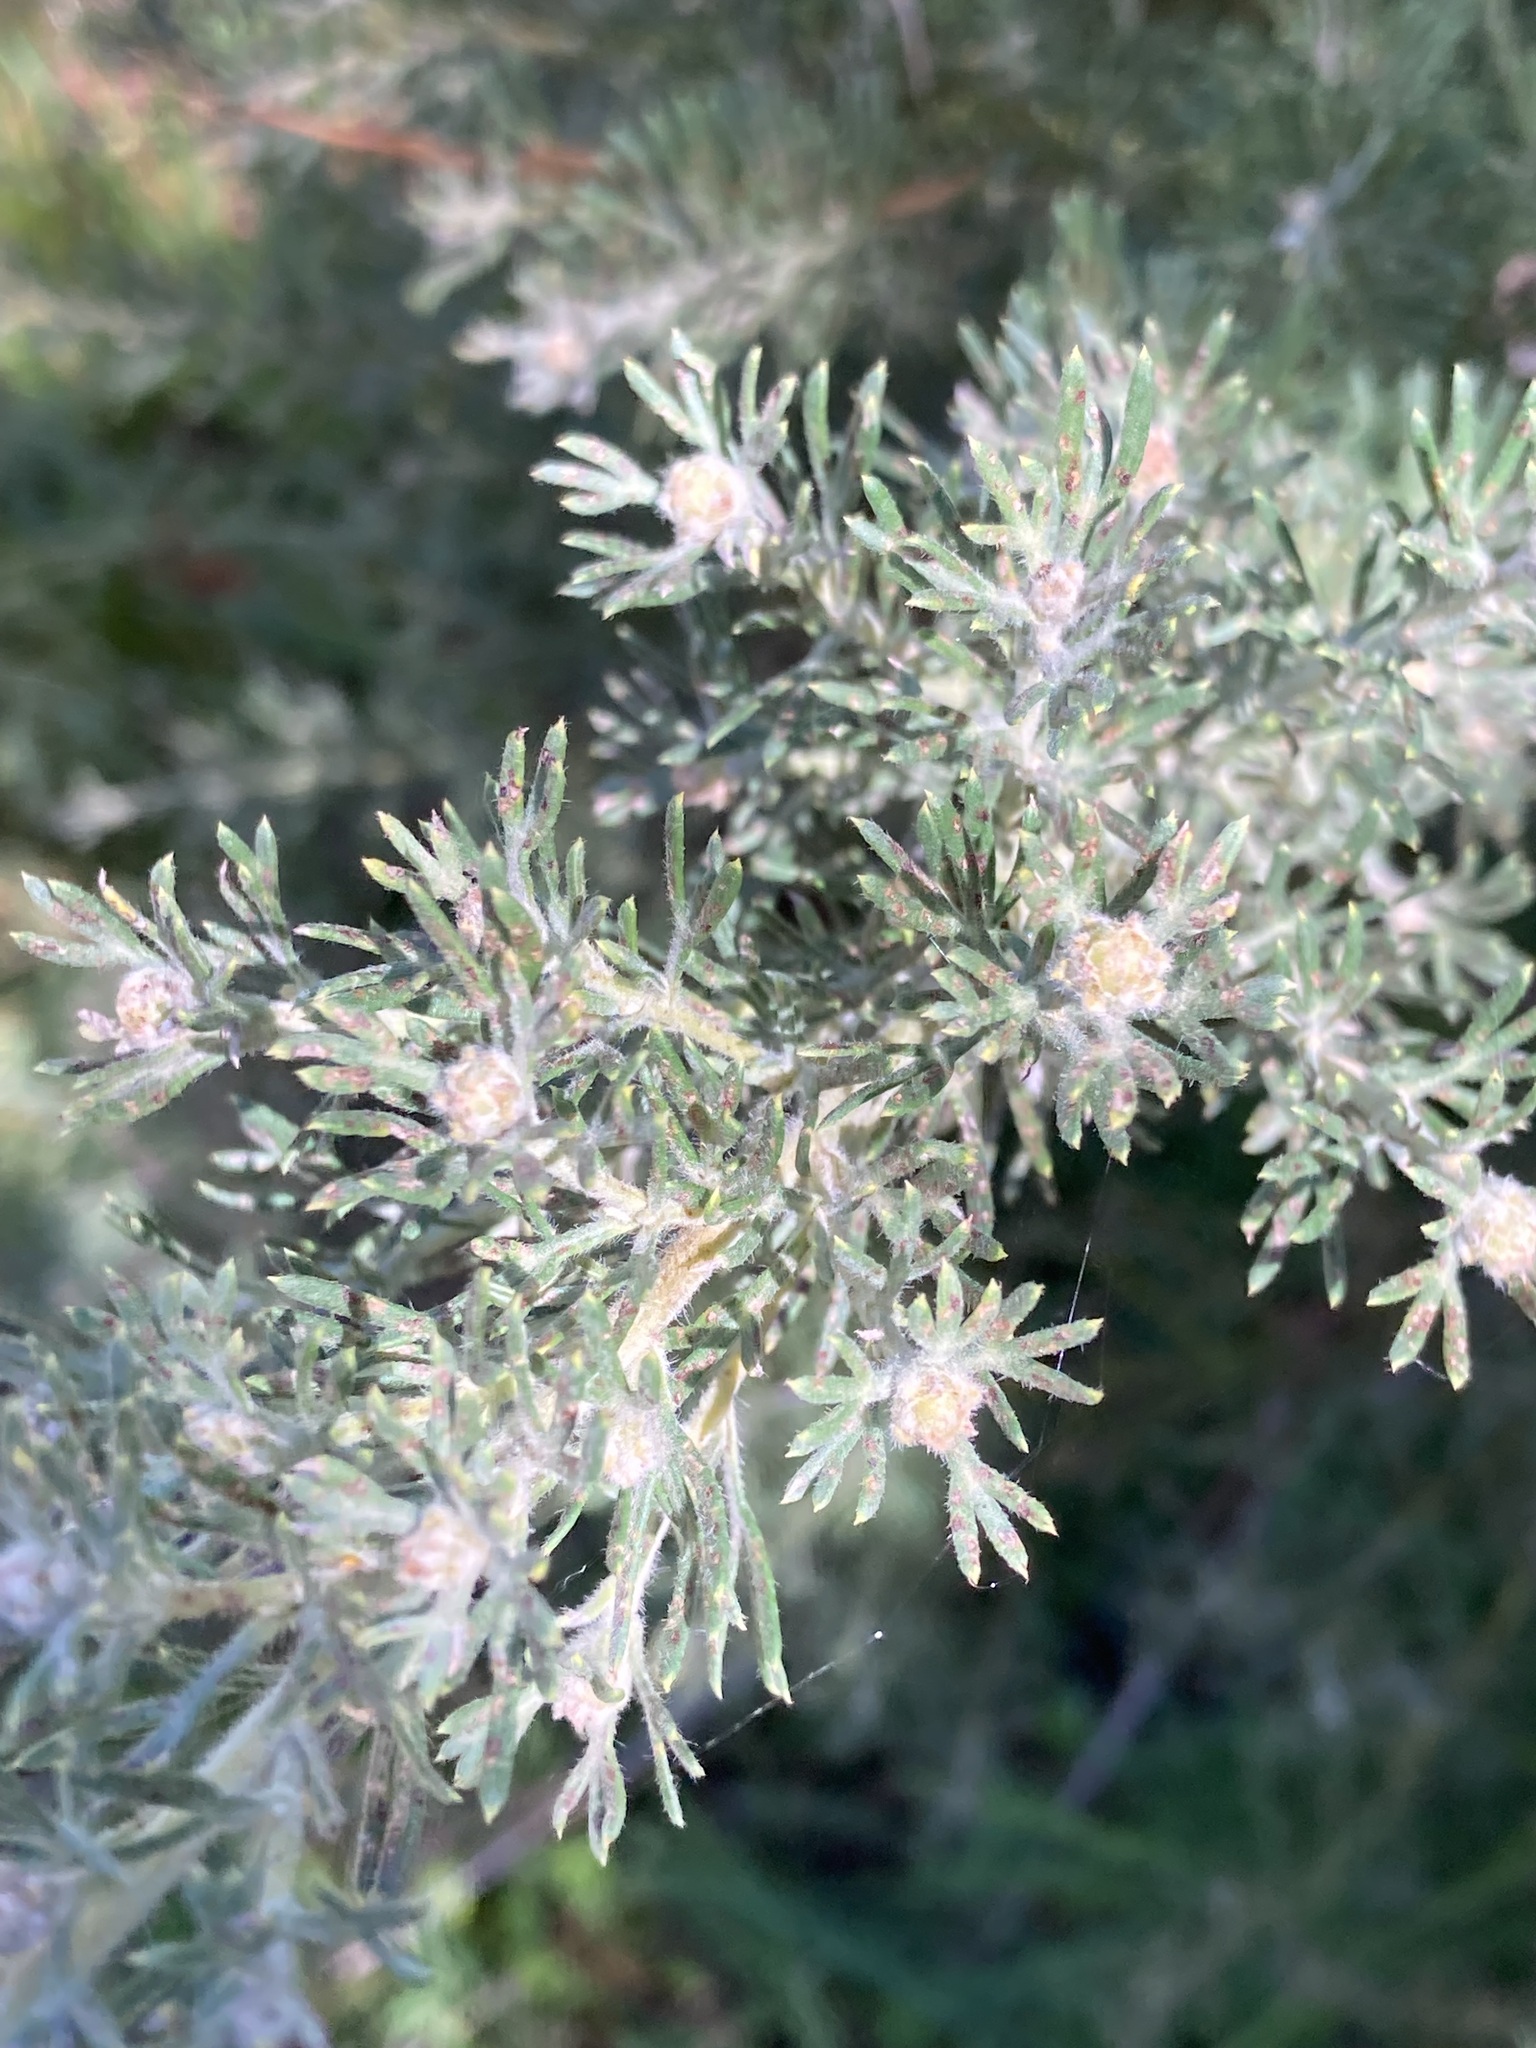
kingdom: Plantae
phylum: Tracheophyta
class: Magnoliopsida
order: Proteales
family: Proteaceae
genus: Grevillea
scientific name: Grevillea crithmifolia
